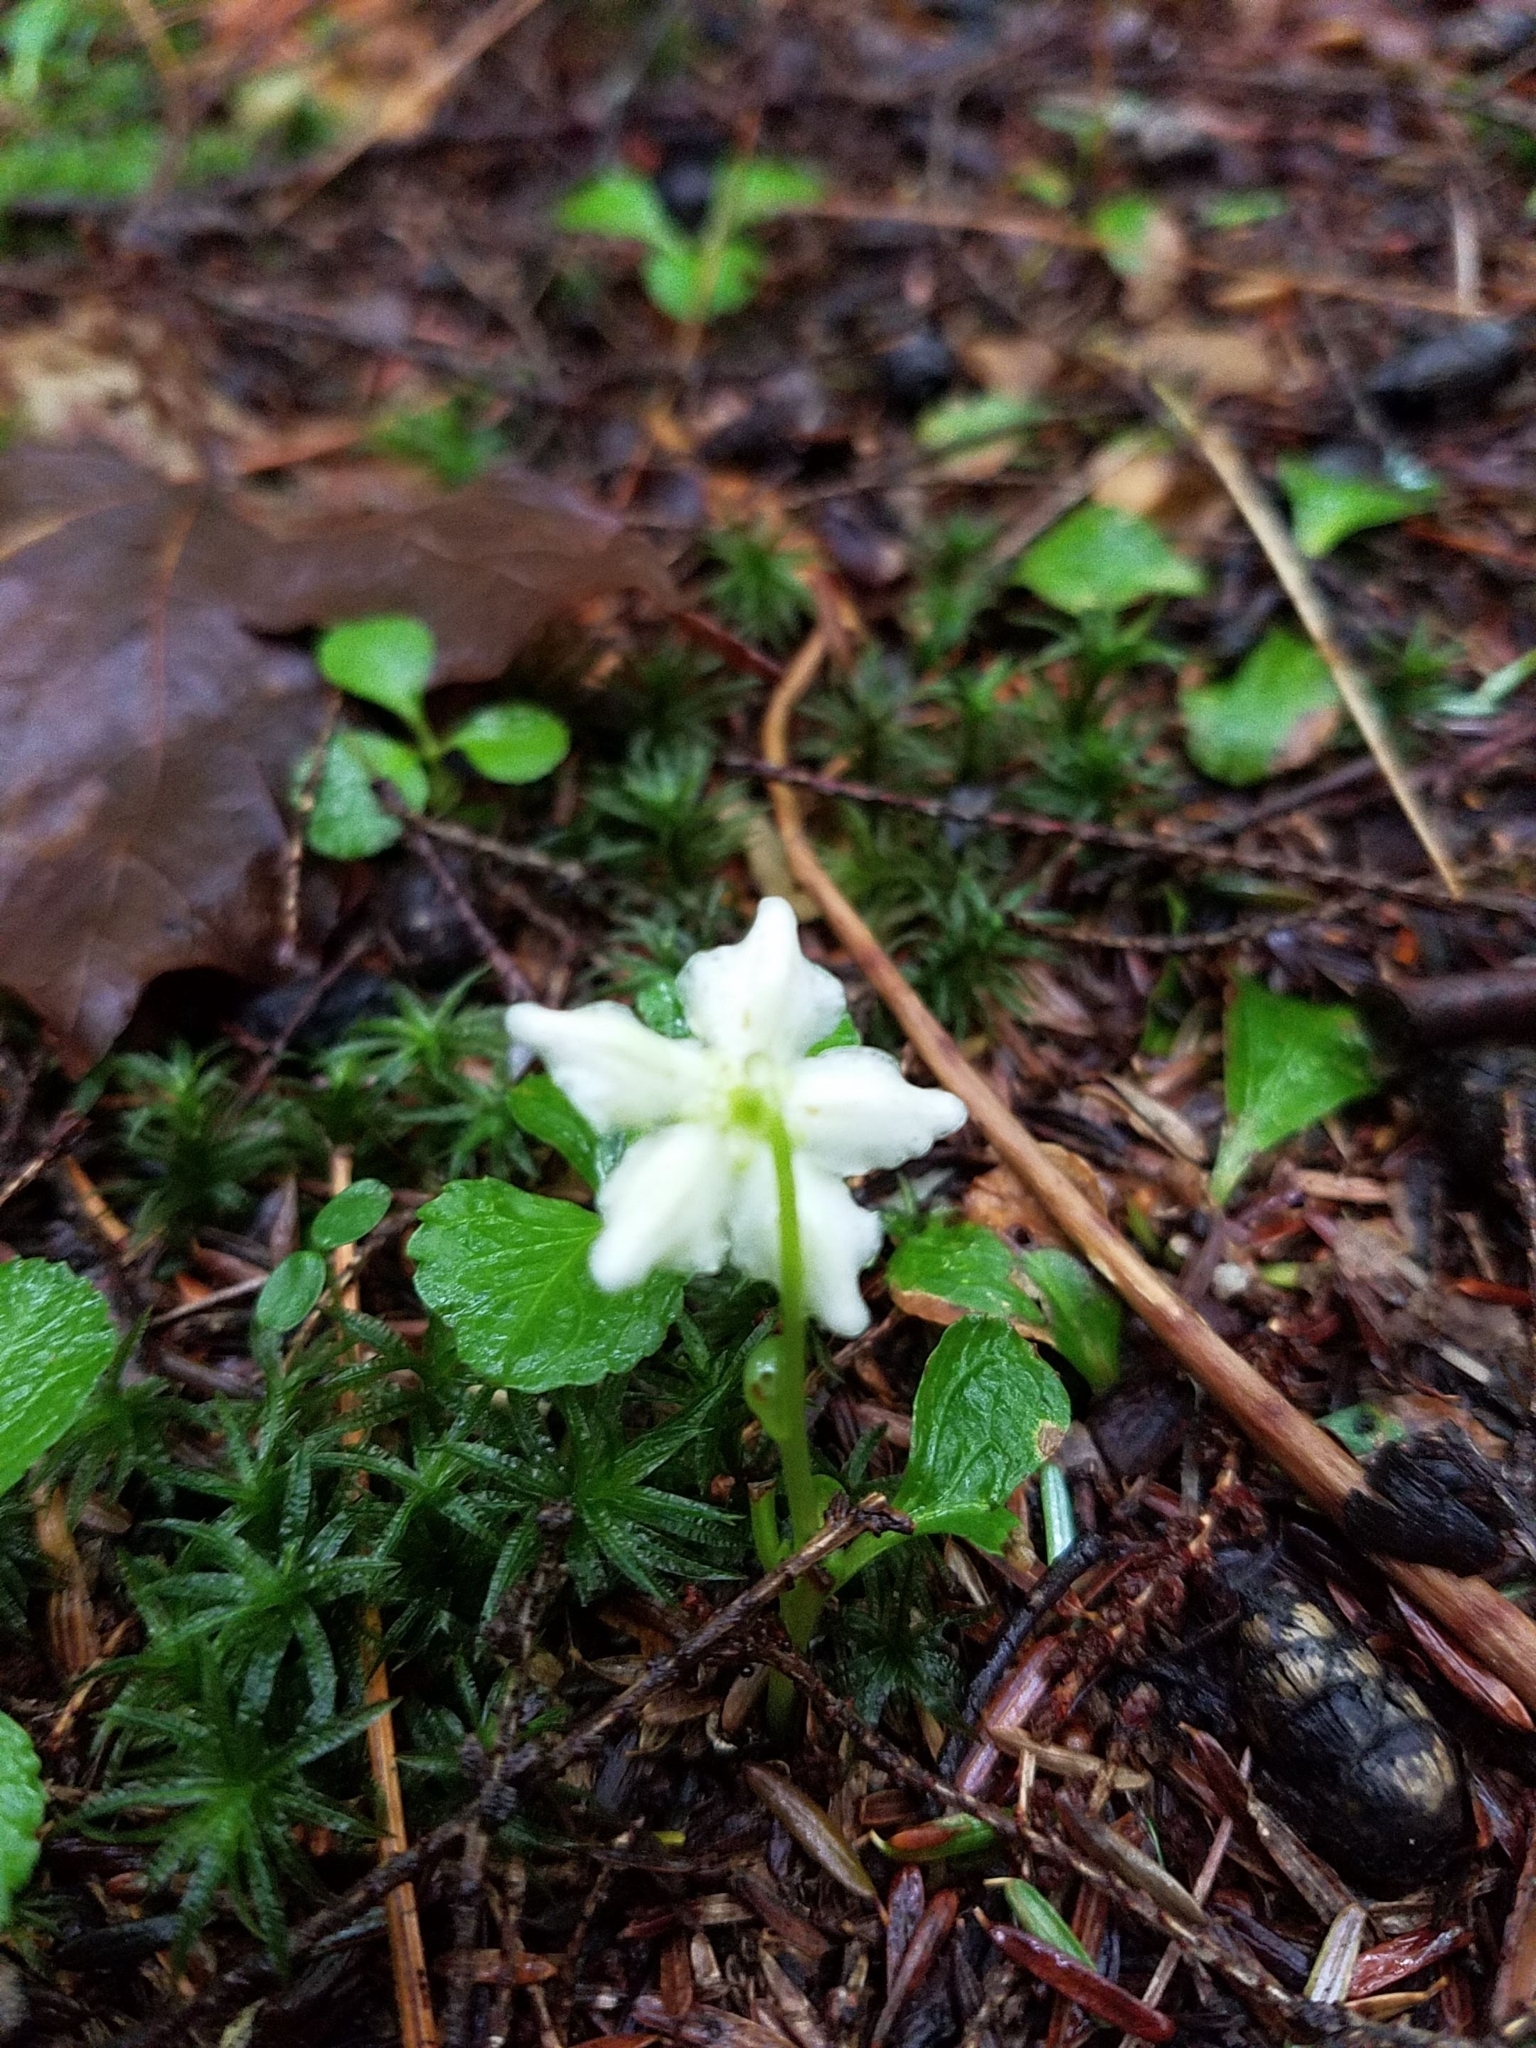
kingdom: Plantae
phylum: Tracheophyta
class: Magnoliopsida
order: Ericales
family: Ericaceae
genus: Moneses
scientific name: Moneses uniflora
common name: One-flowered wintergreen
